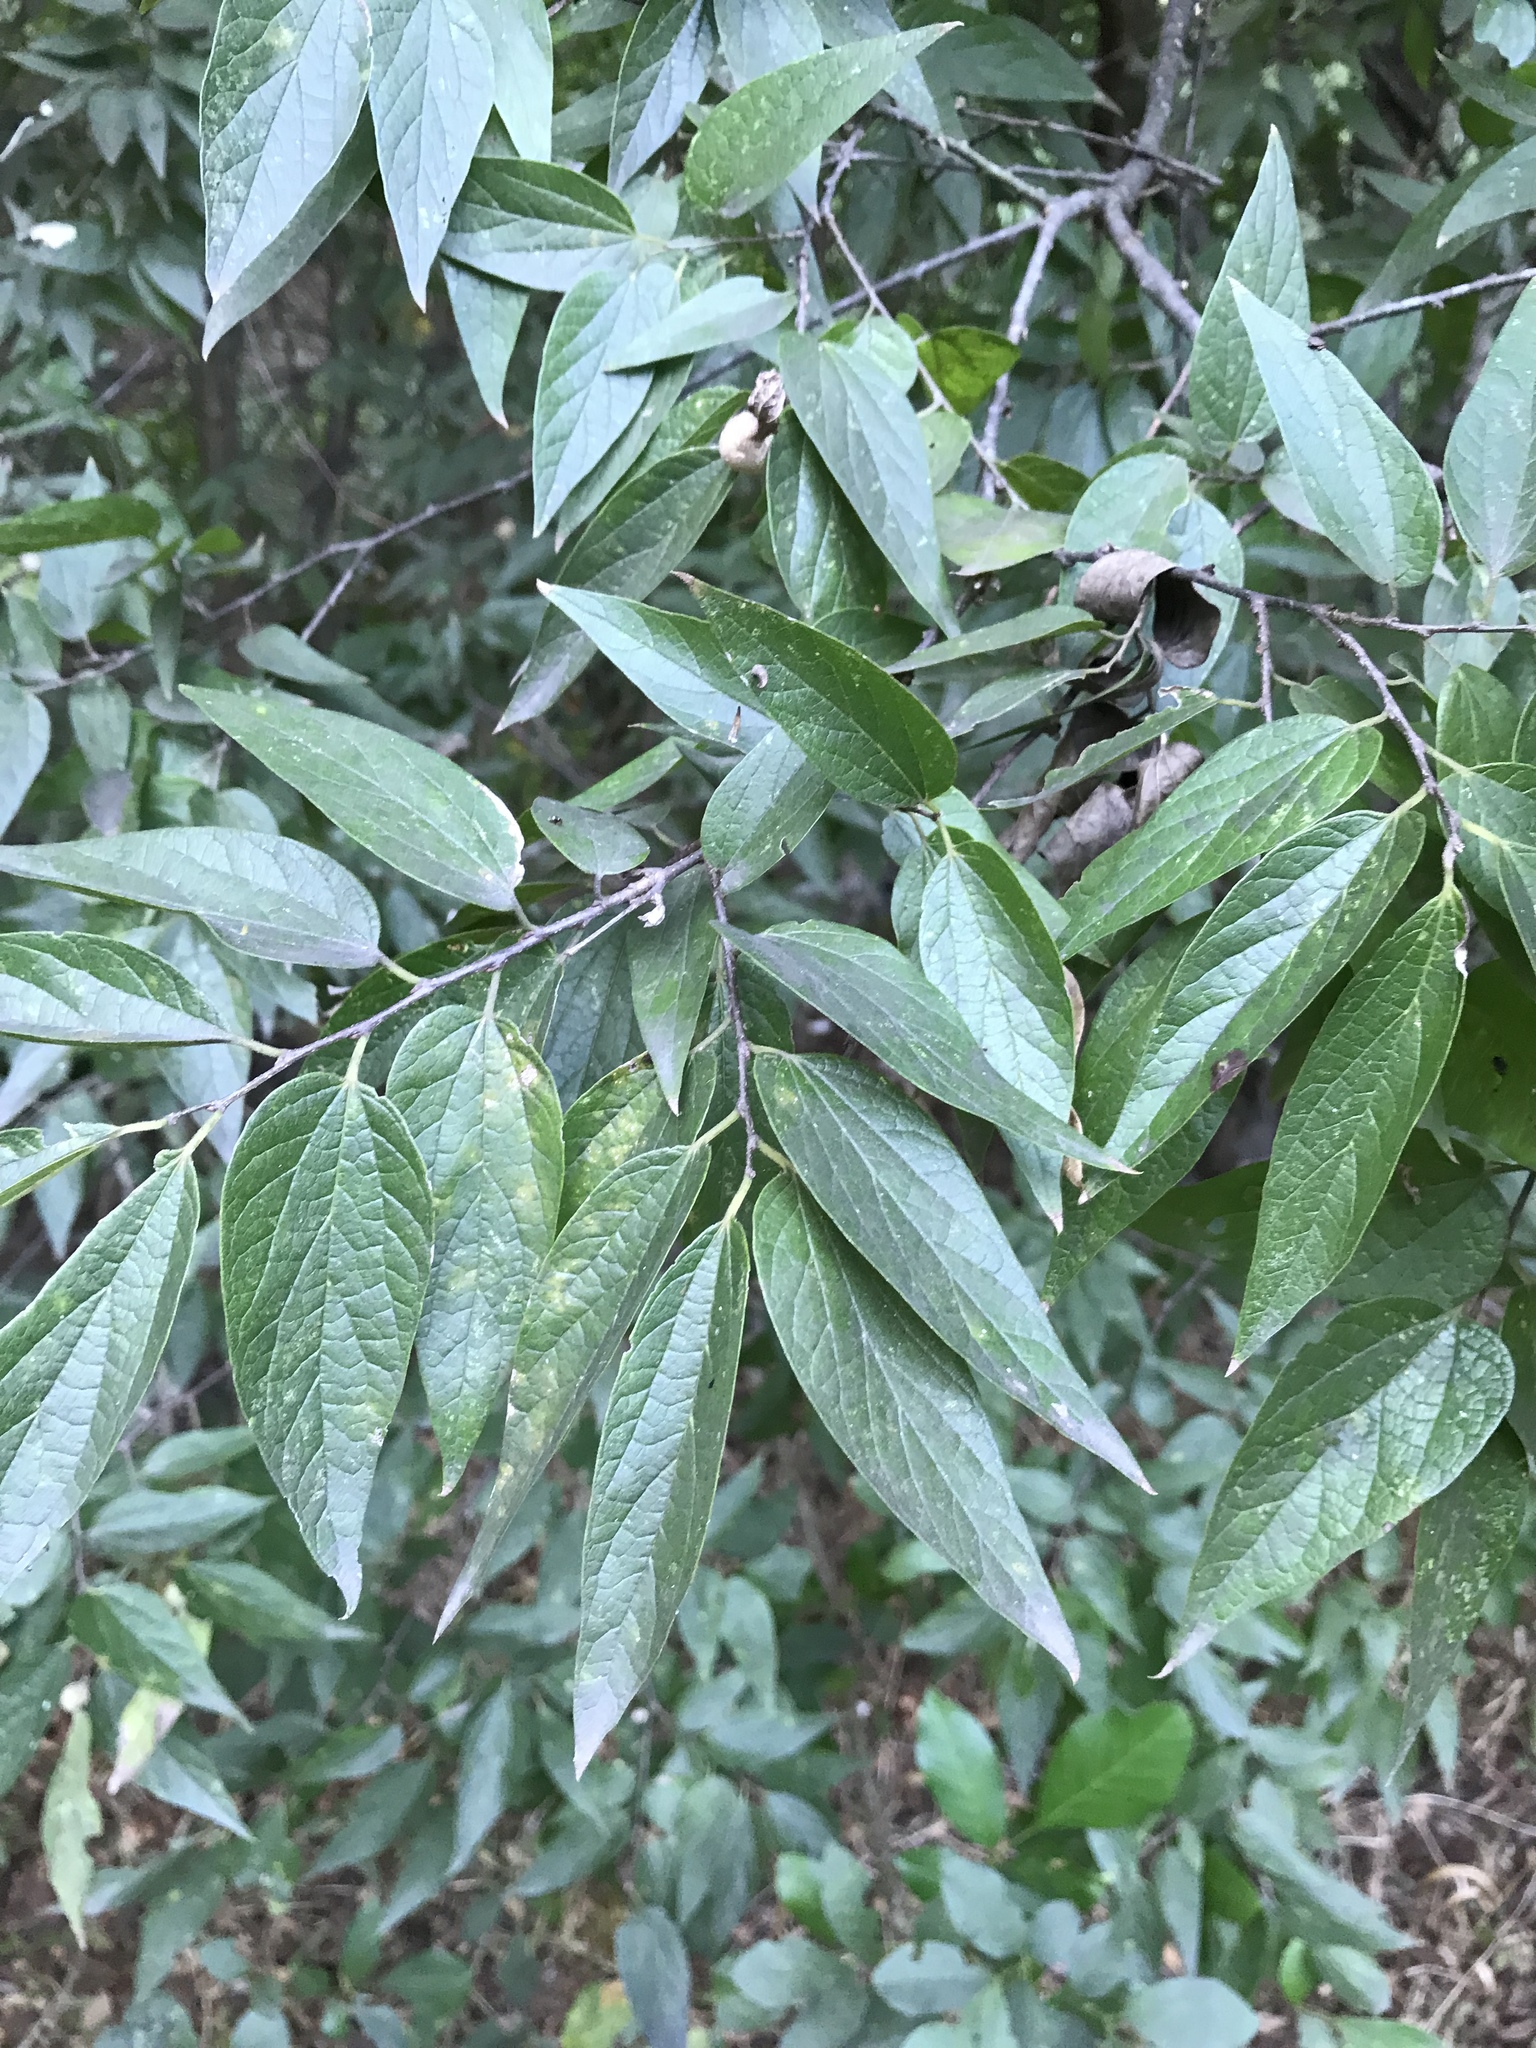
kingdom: Plantae
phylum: Tracheophyta
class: Magnoliopsida
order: Rosales
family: Cannabaceae
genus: Celtis
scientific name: Celtis laevigata
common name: Sugarberry
